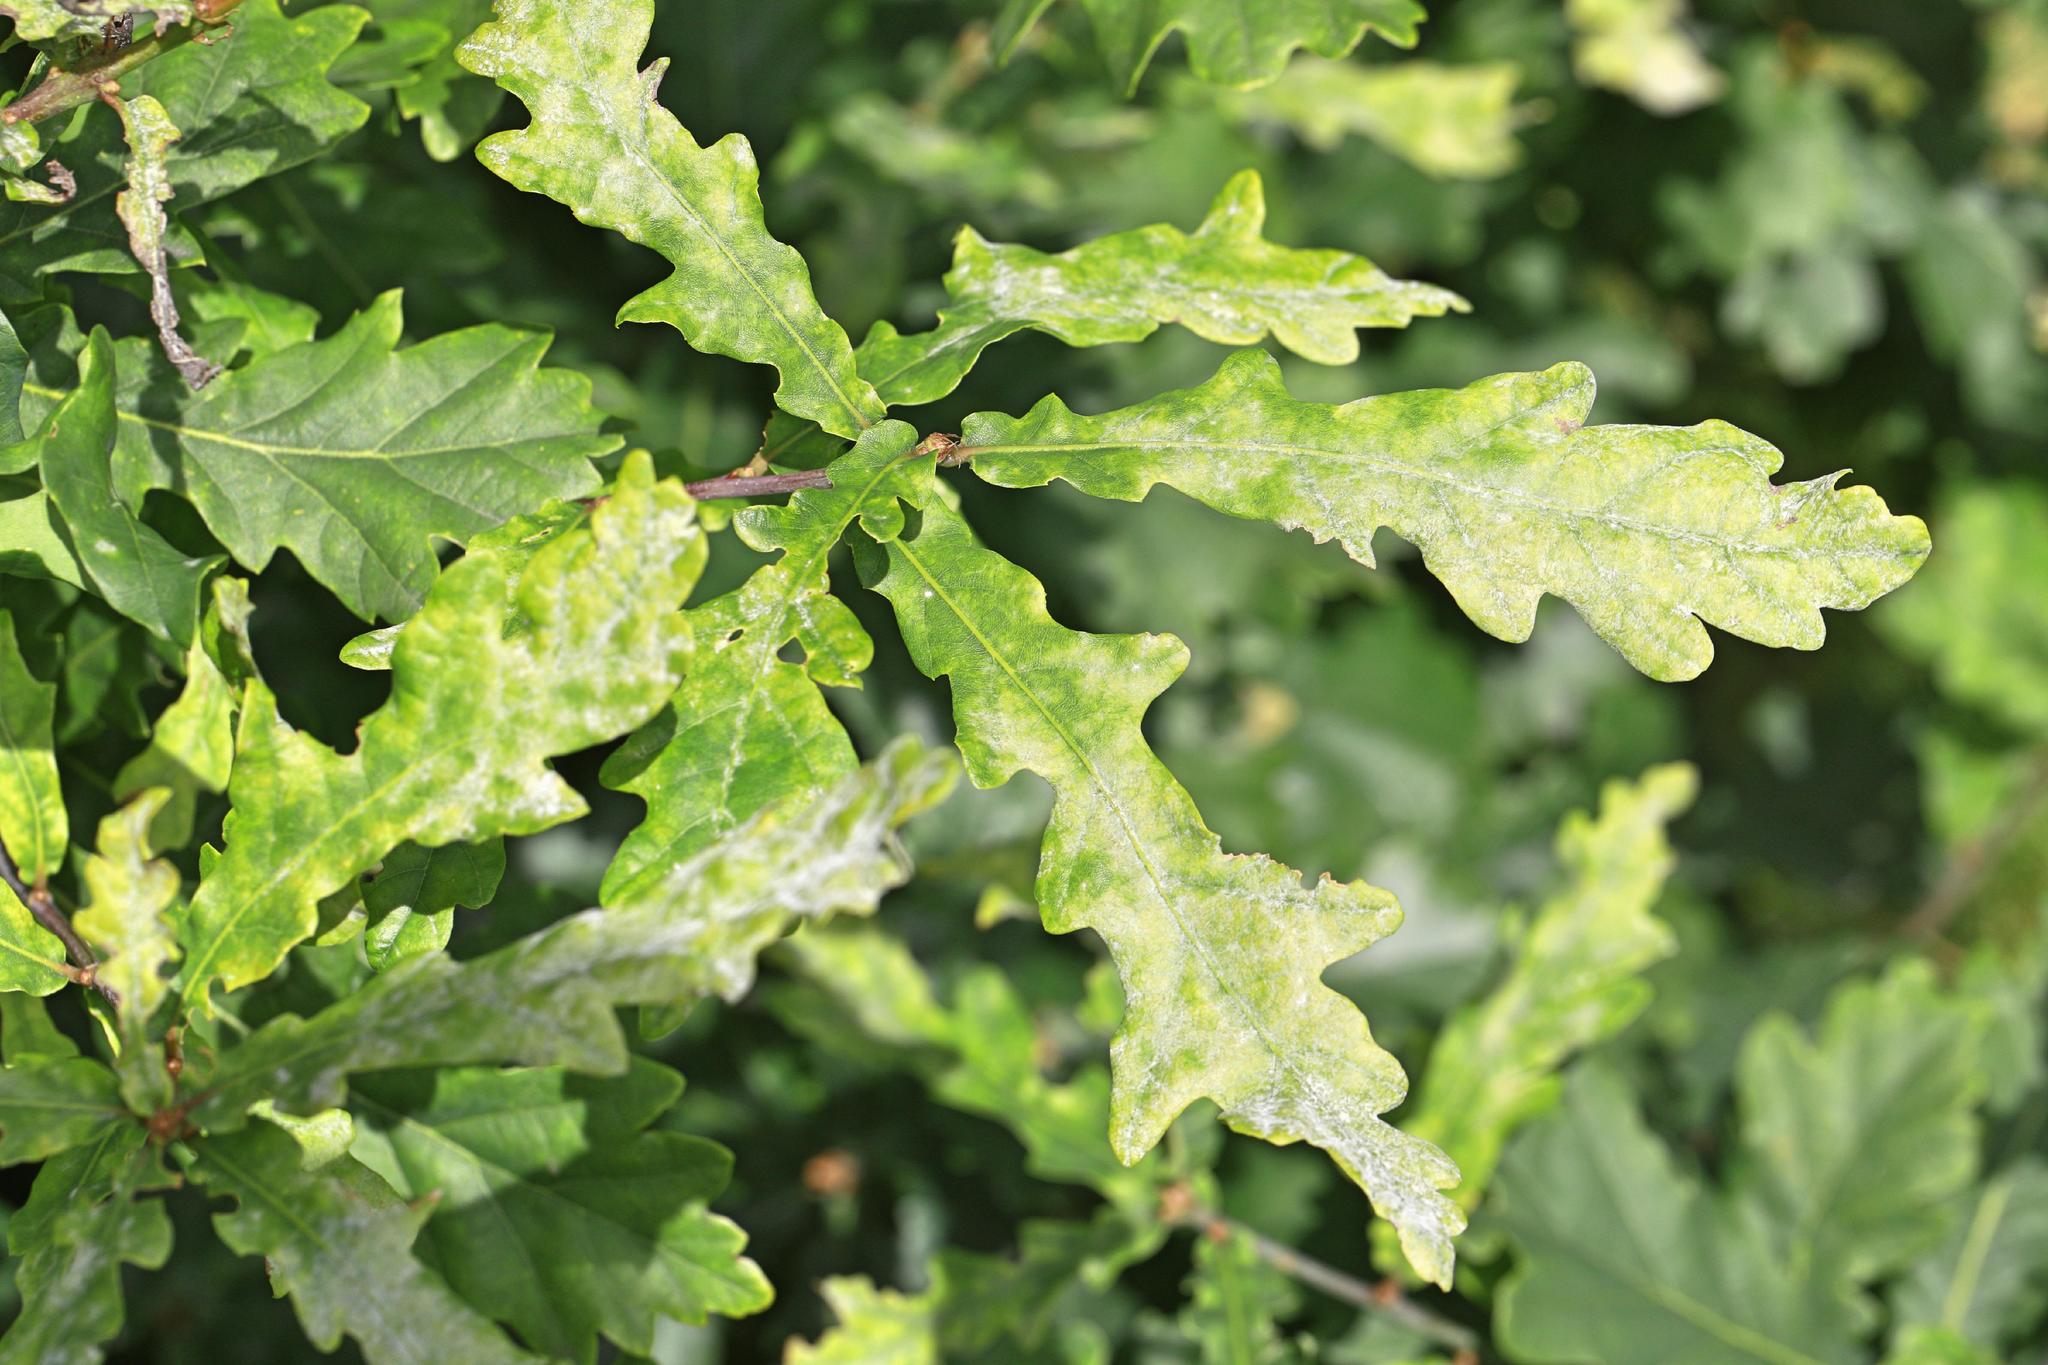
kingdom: Plantae
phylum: Tracheophyta
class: Magnoliopsida
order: Fagales
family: Fagaceae
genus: Quercus
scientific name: Quercus cerris
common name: Turkey oak
